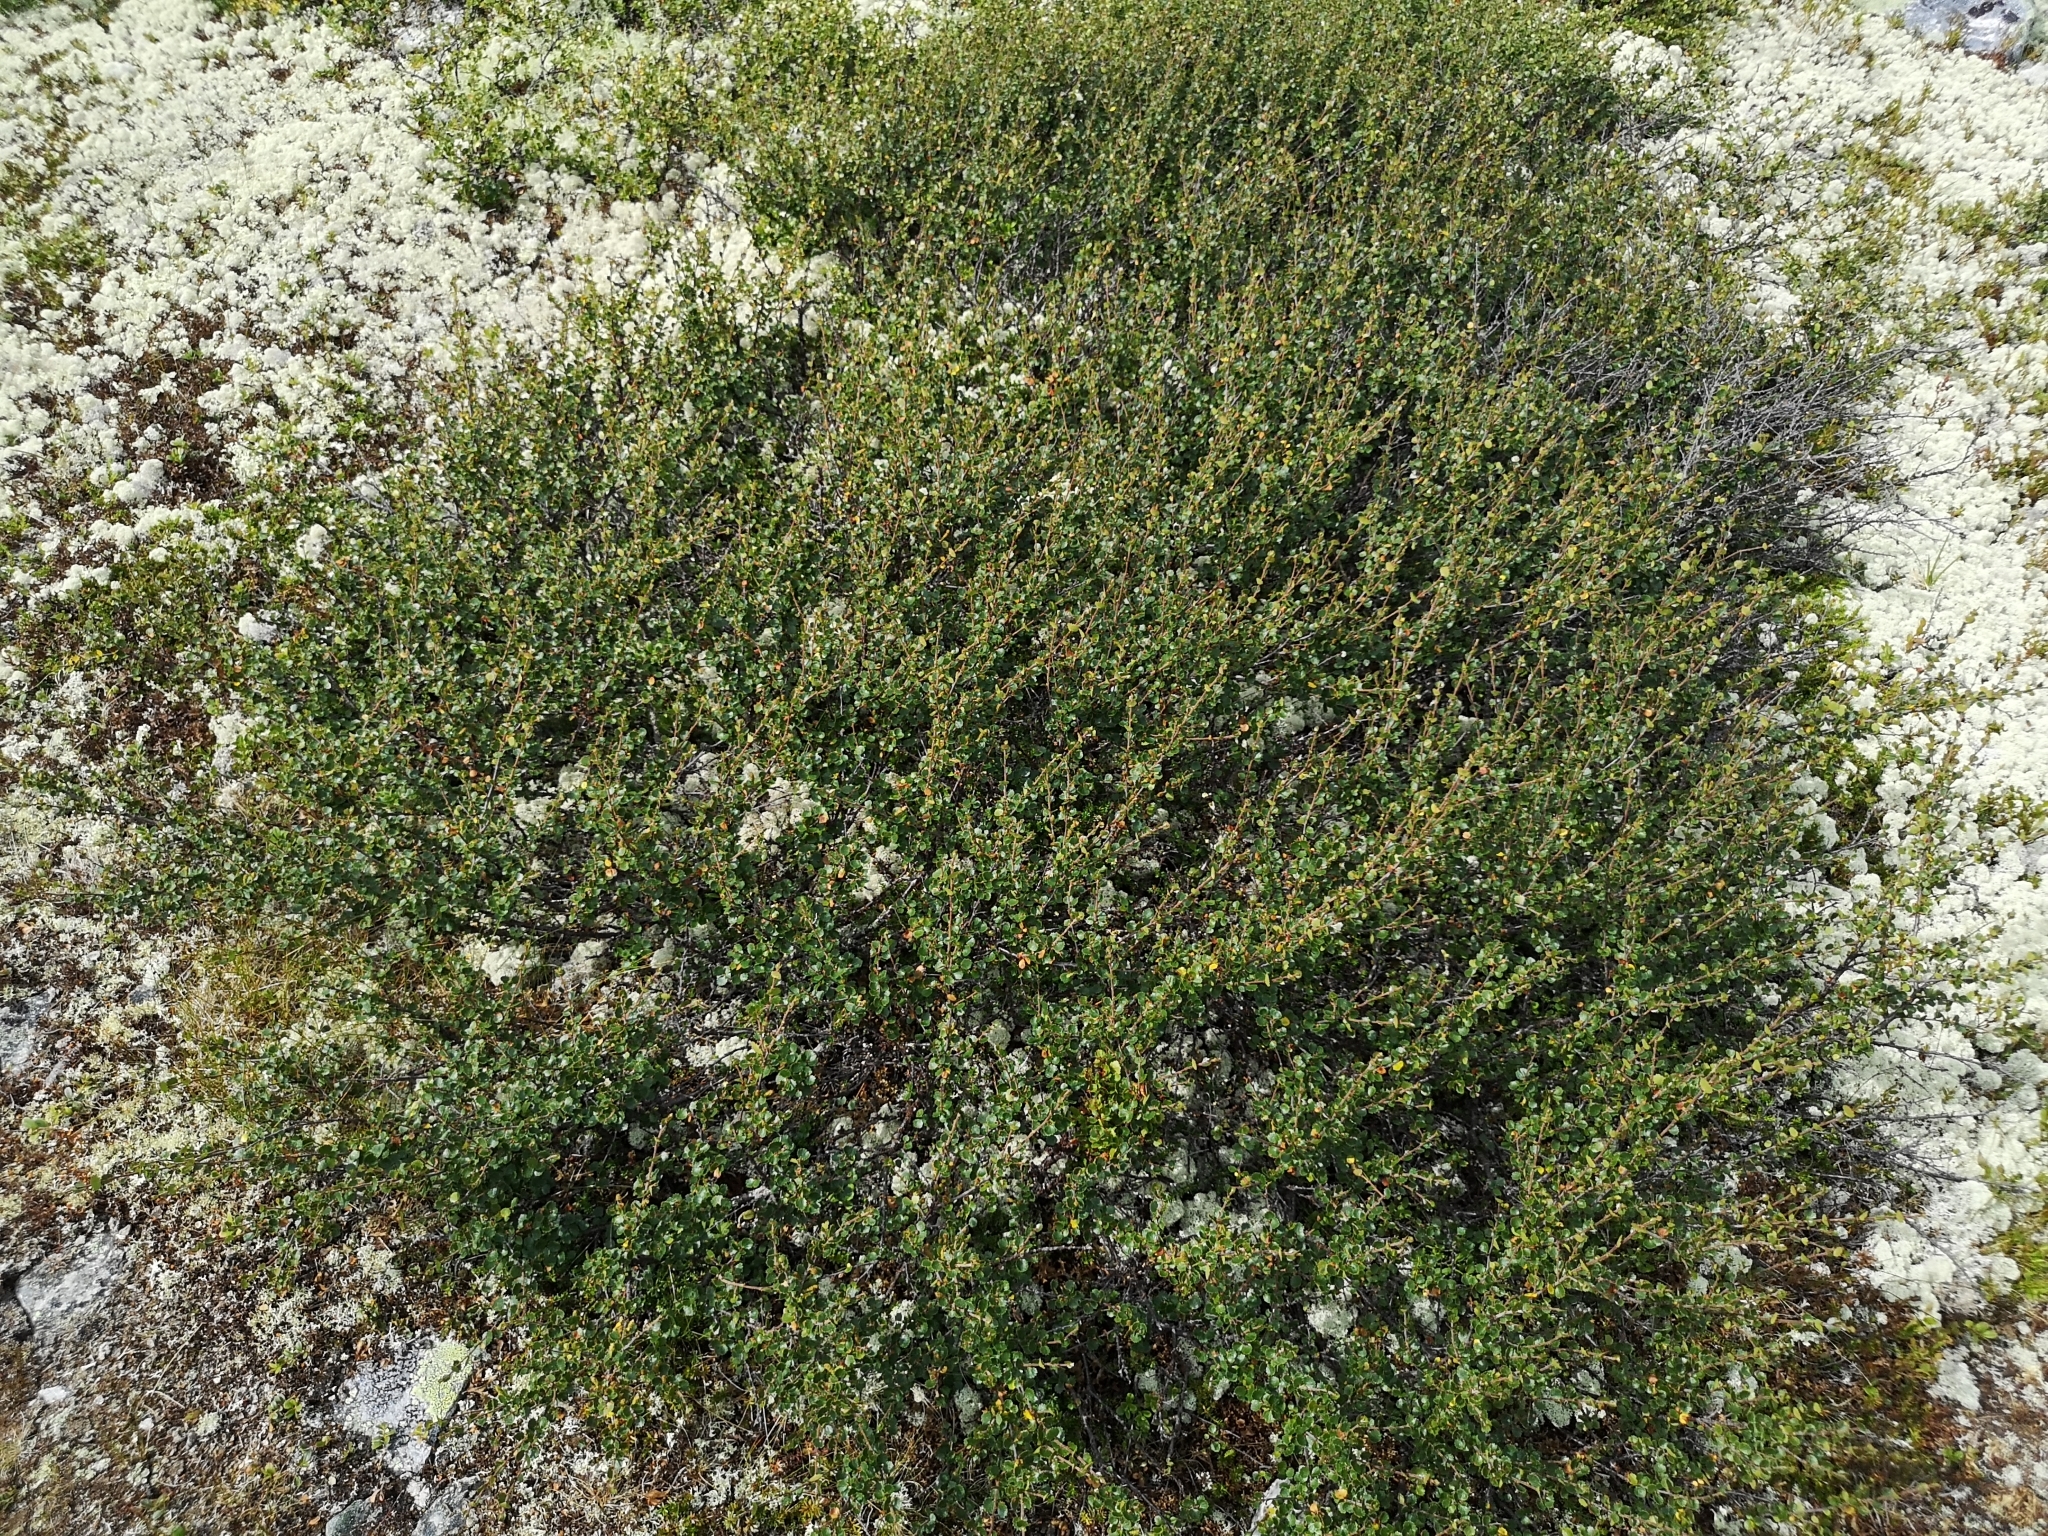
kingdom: Plantae
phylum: Tracheophyta
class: Magnoliopsida
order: Fagales
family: Betulaceae
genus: Betula
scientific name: Betula nana
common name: Arctic dwarf birch
